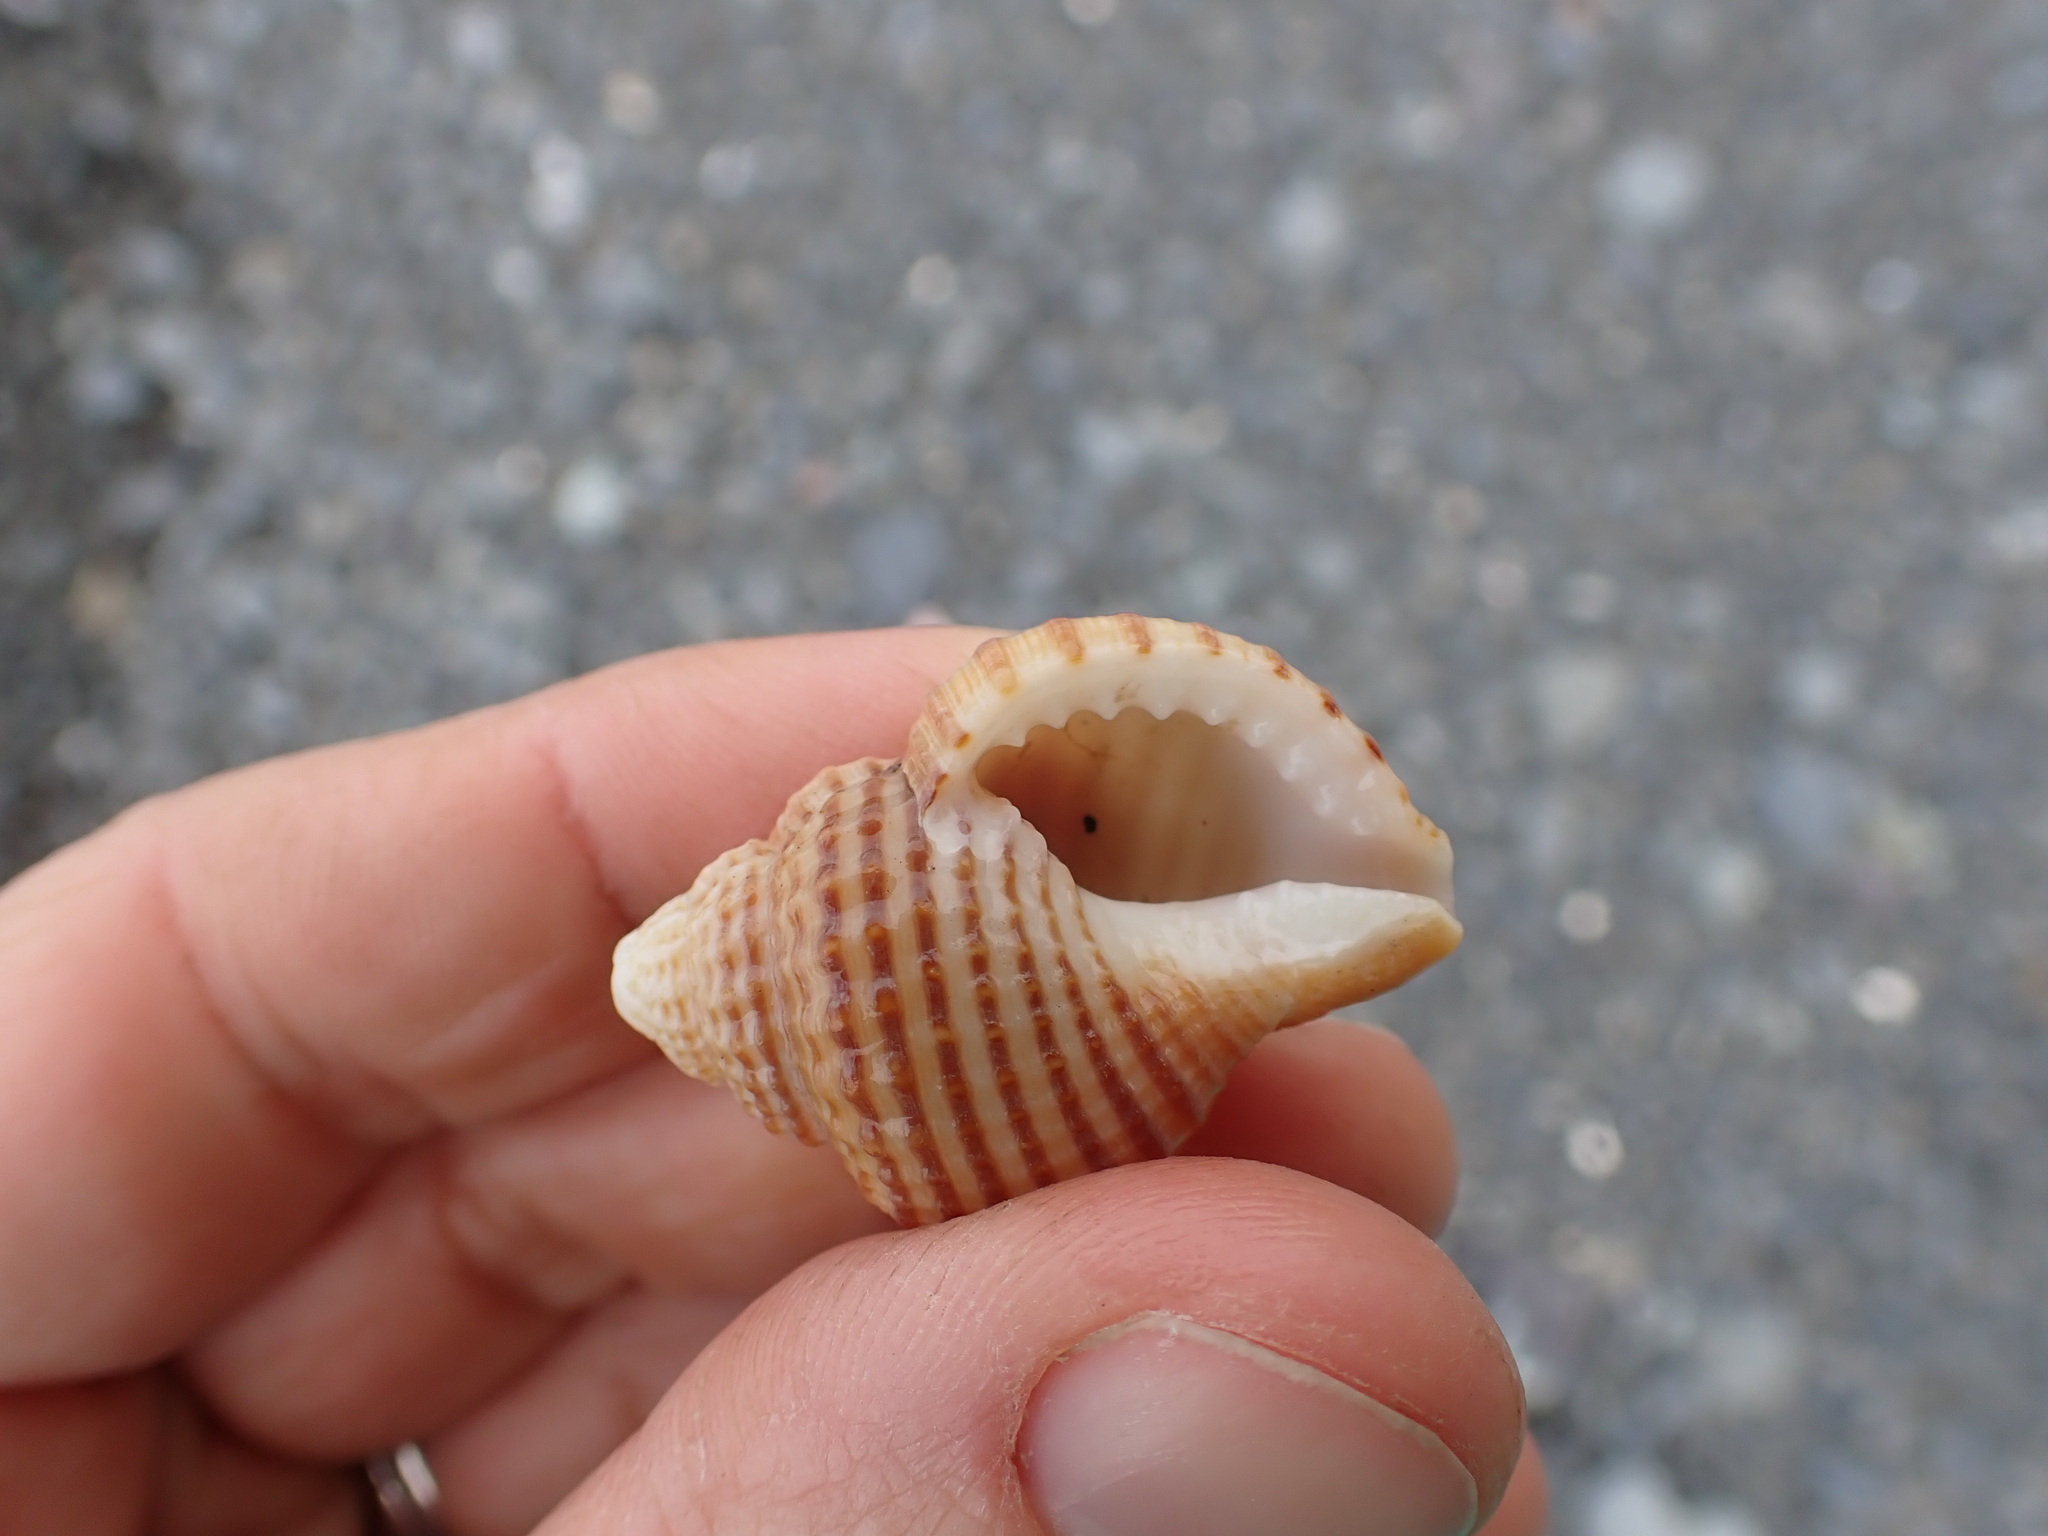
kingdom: Animalia
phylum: Mollusca
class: Gastropoda
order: Littorinimorpha
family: Cymatiidae
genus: Argobuccinum
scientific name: Argobuccinum pustulosum
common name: Pustular triton
